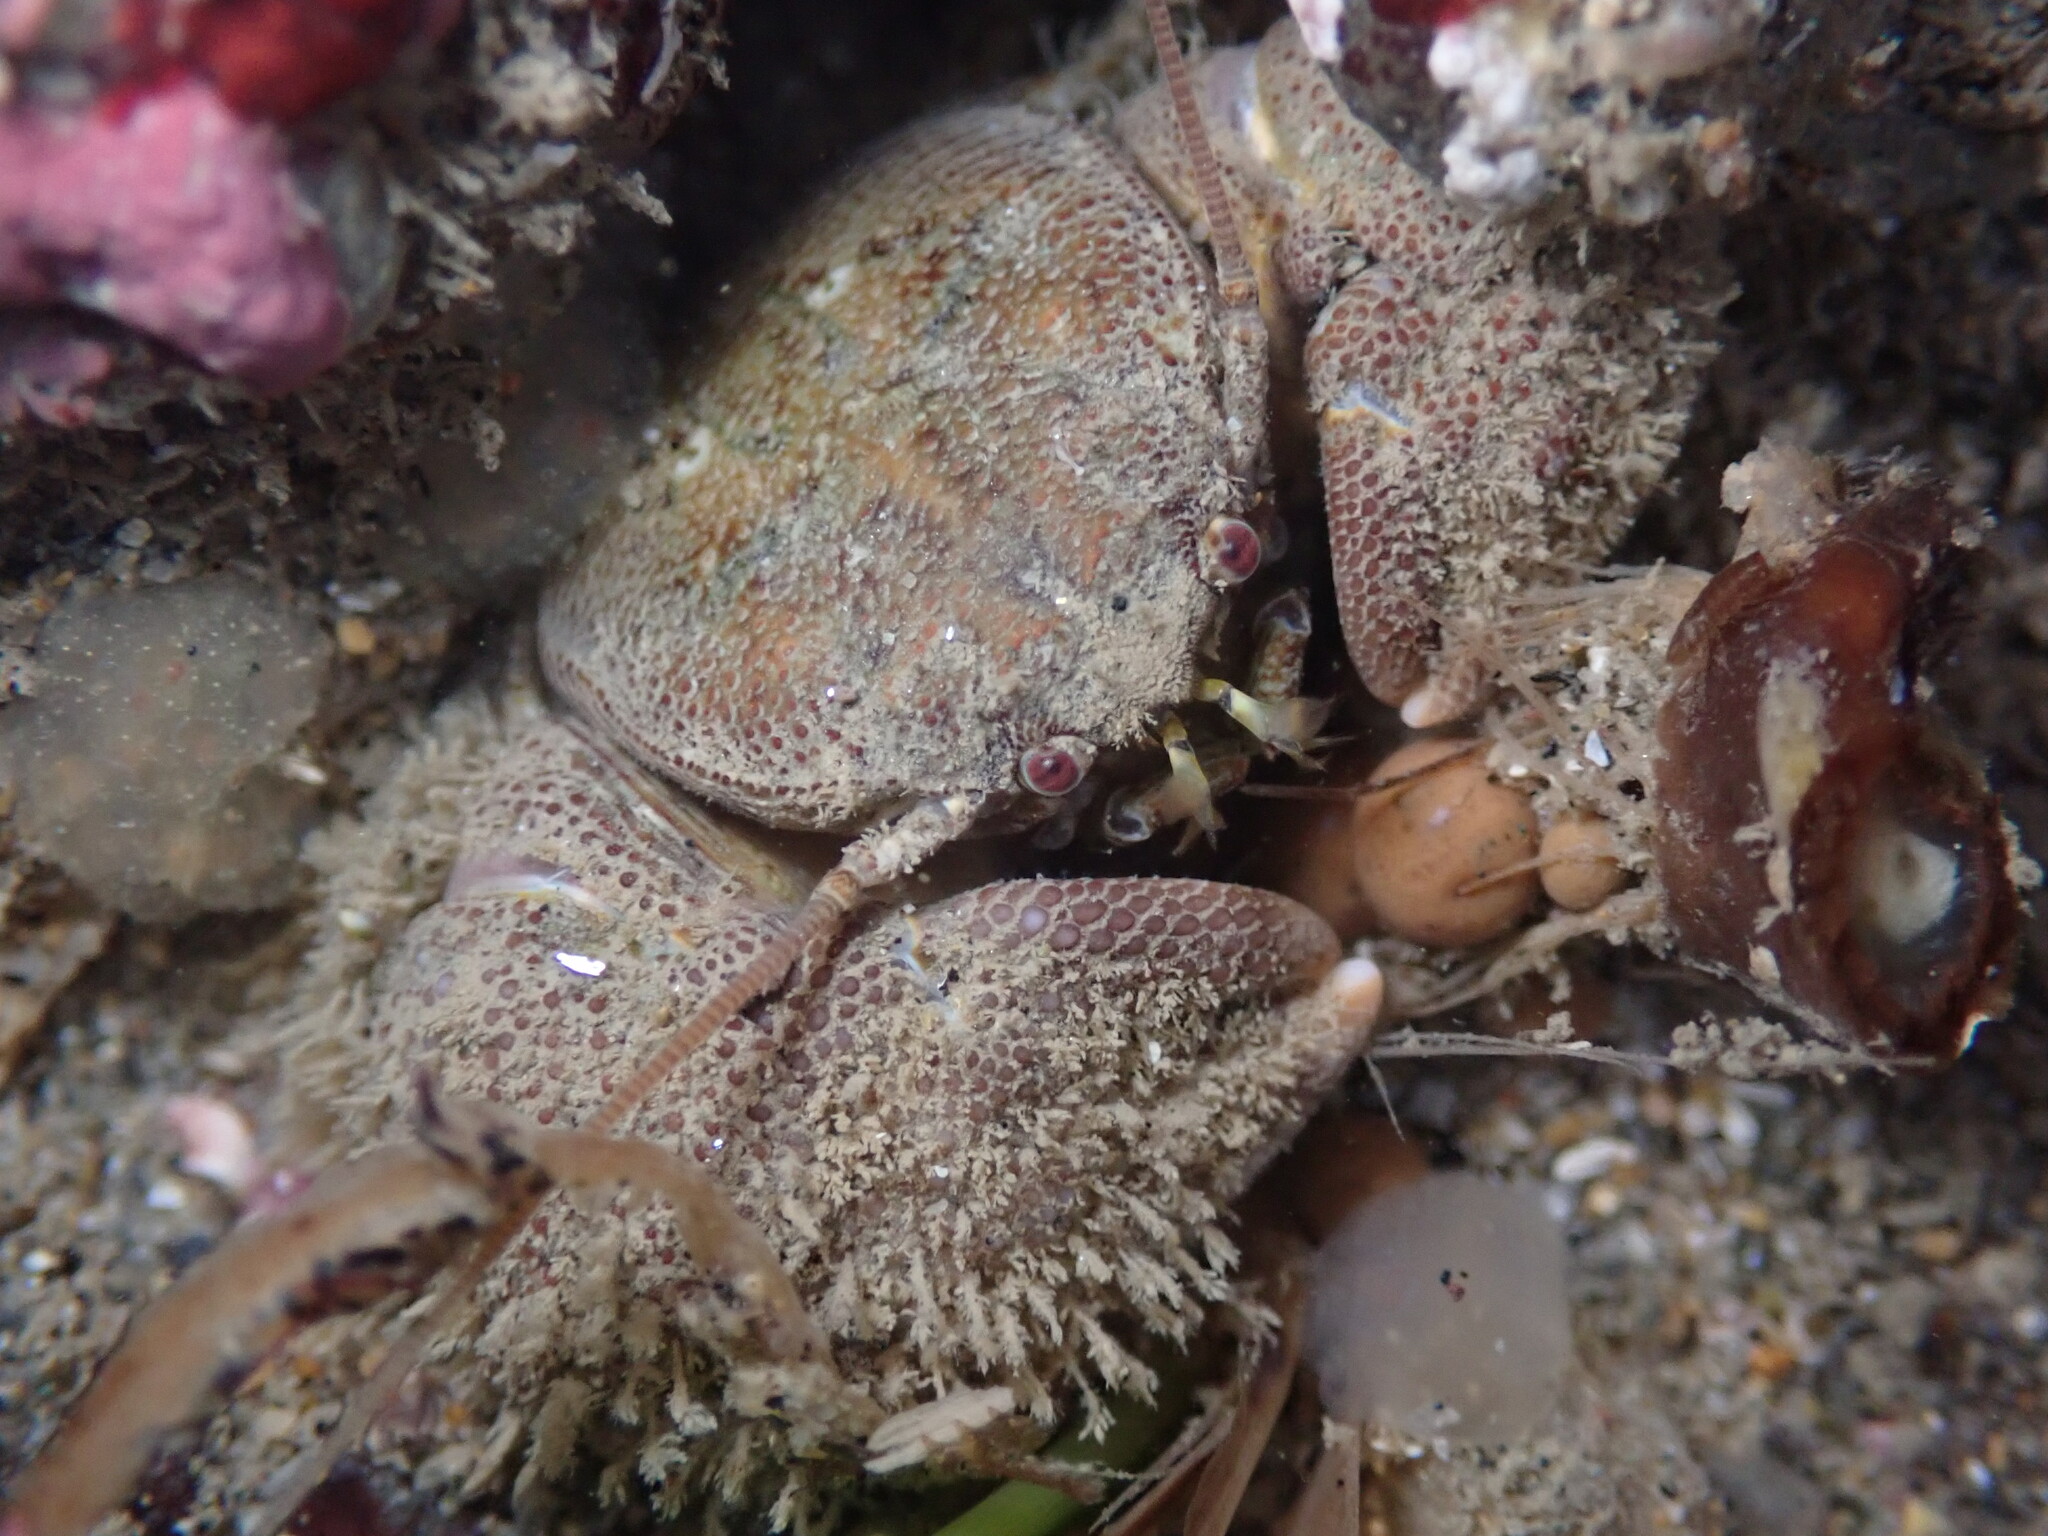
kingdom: Animalia
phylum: Arthropoda
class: Malacostraca
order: Decapoda
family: Porcellanidae
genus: Pachycheles
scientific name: Pachycheles rudis
